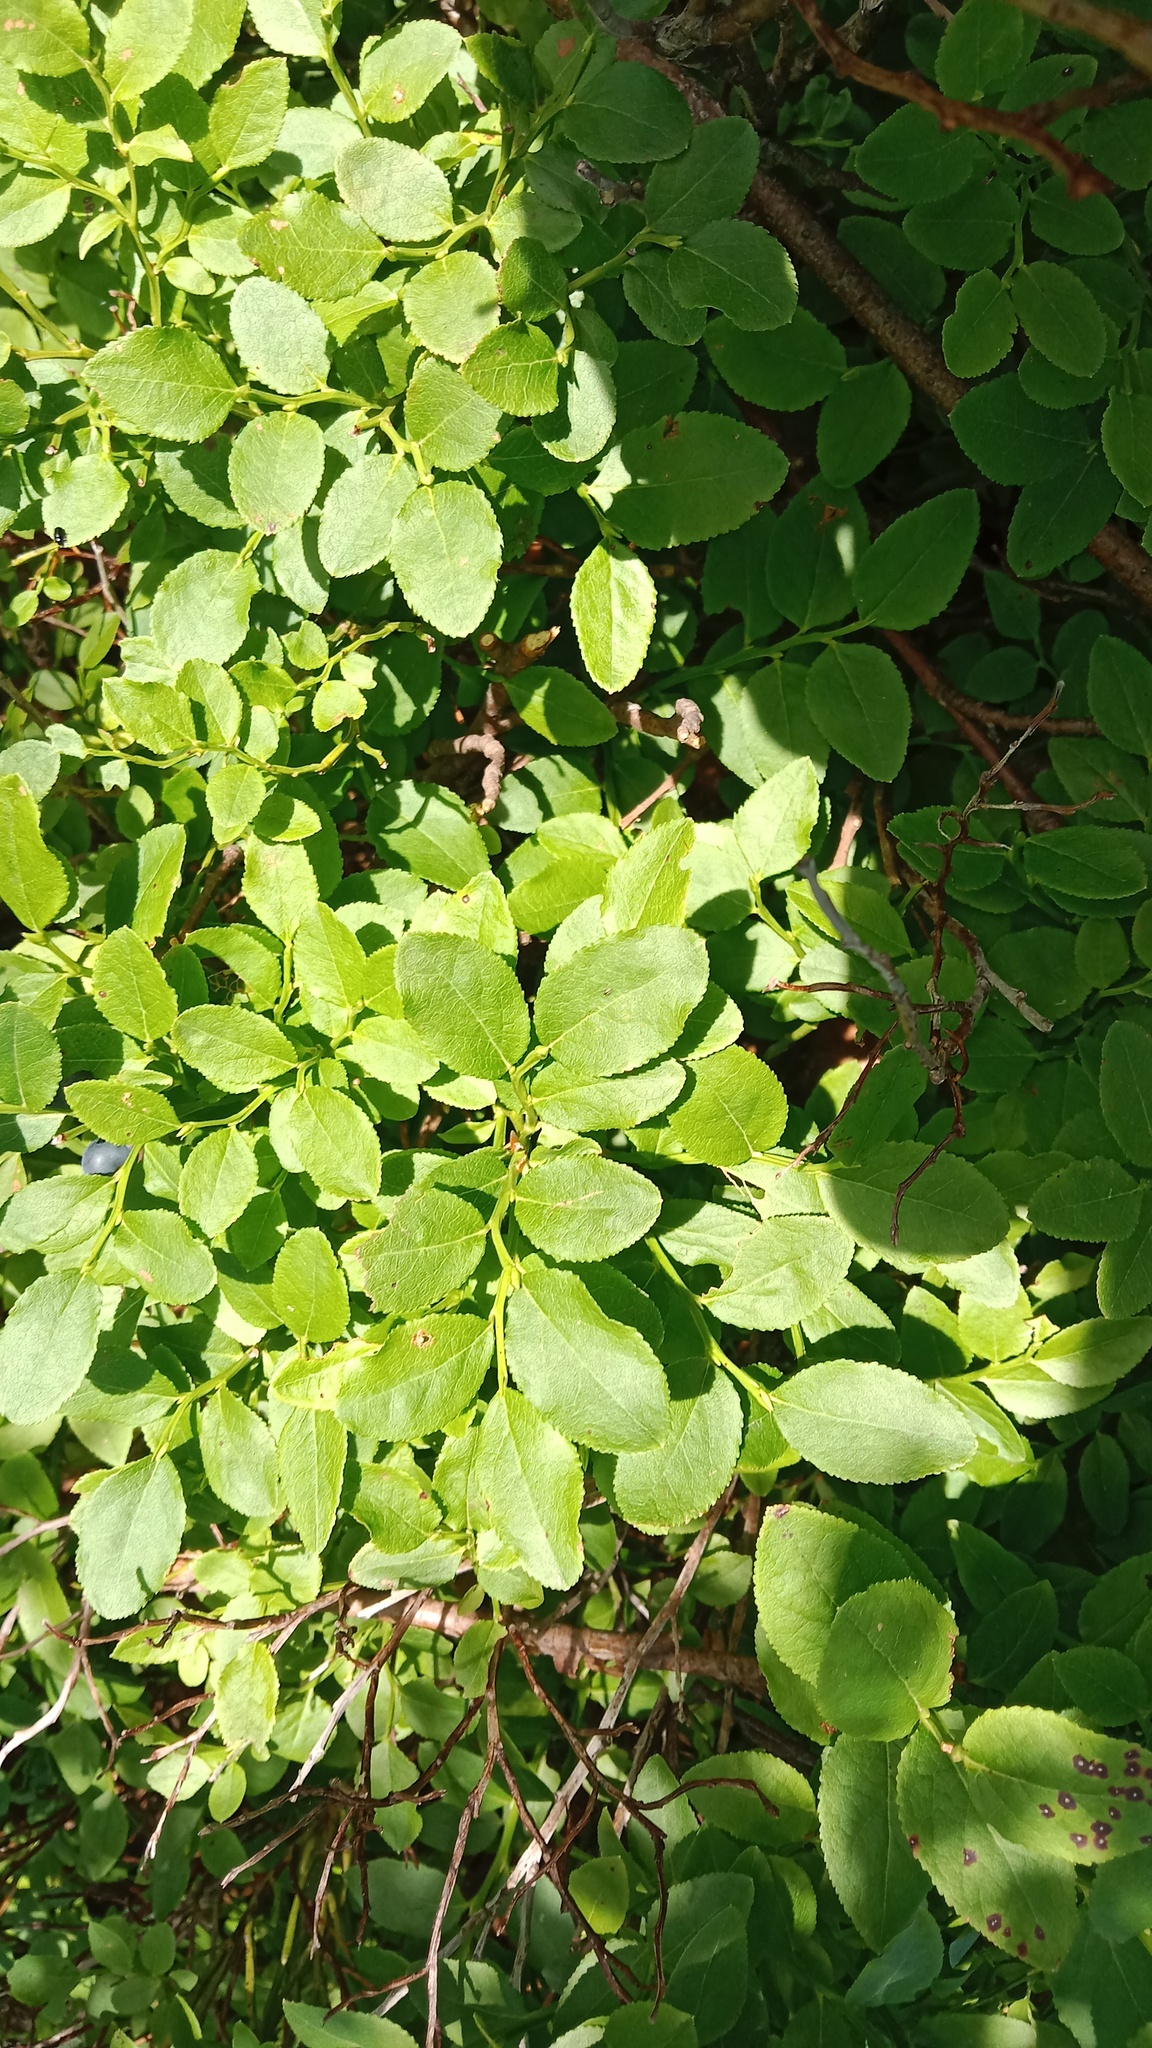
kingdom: Plantae
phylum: Tracheophyta
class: Magnoliopsida
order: Ericales
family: Ericaceae
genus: Vaccinium
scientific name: Vaccinium myrtillus
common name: Bilberry
